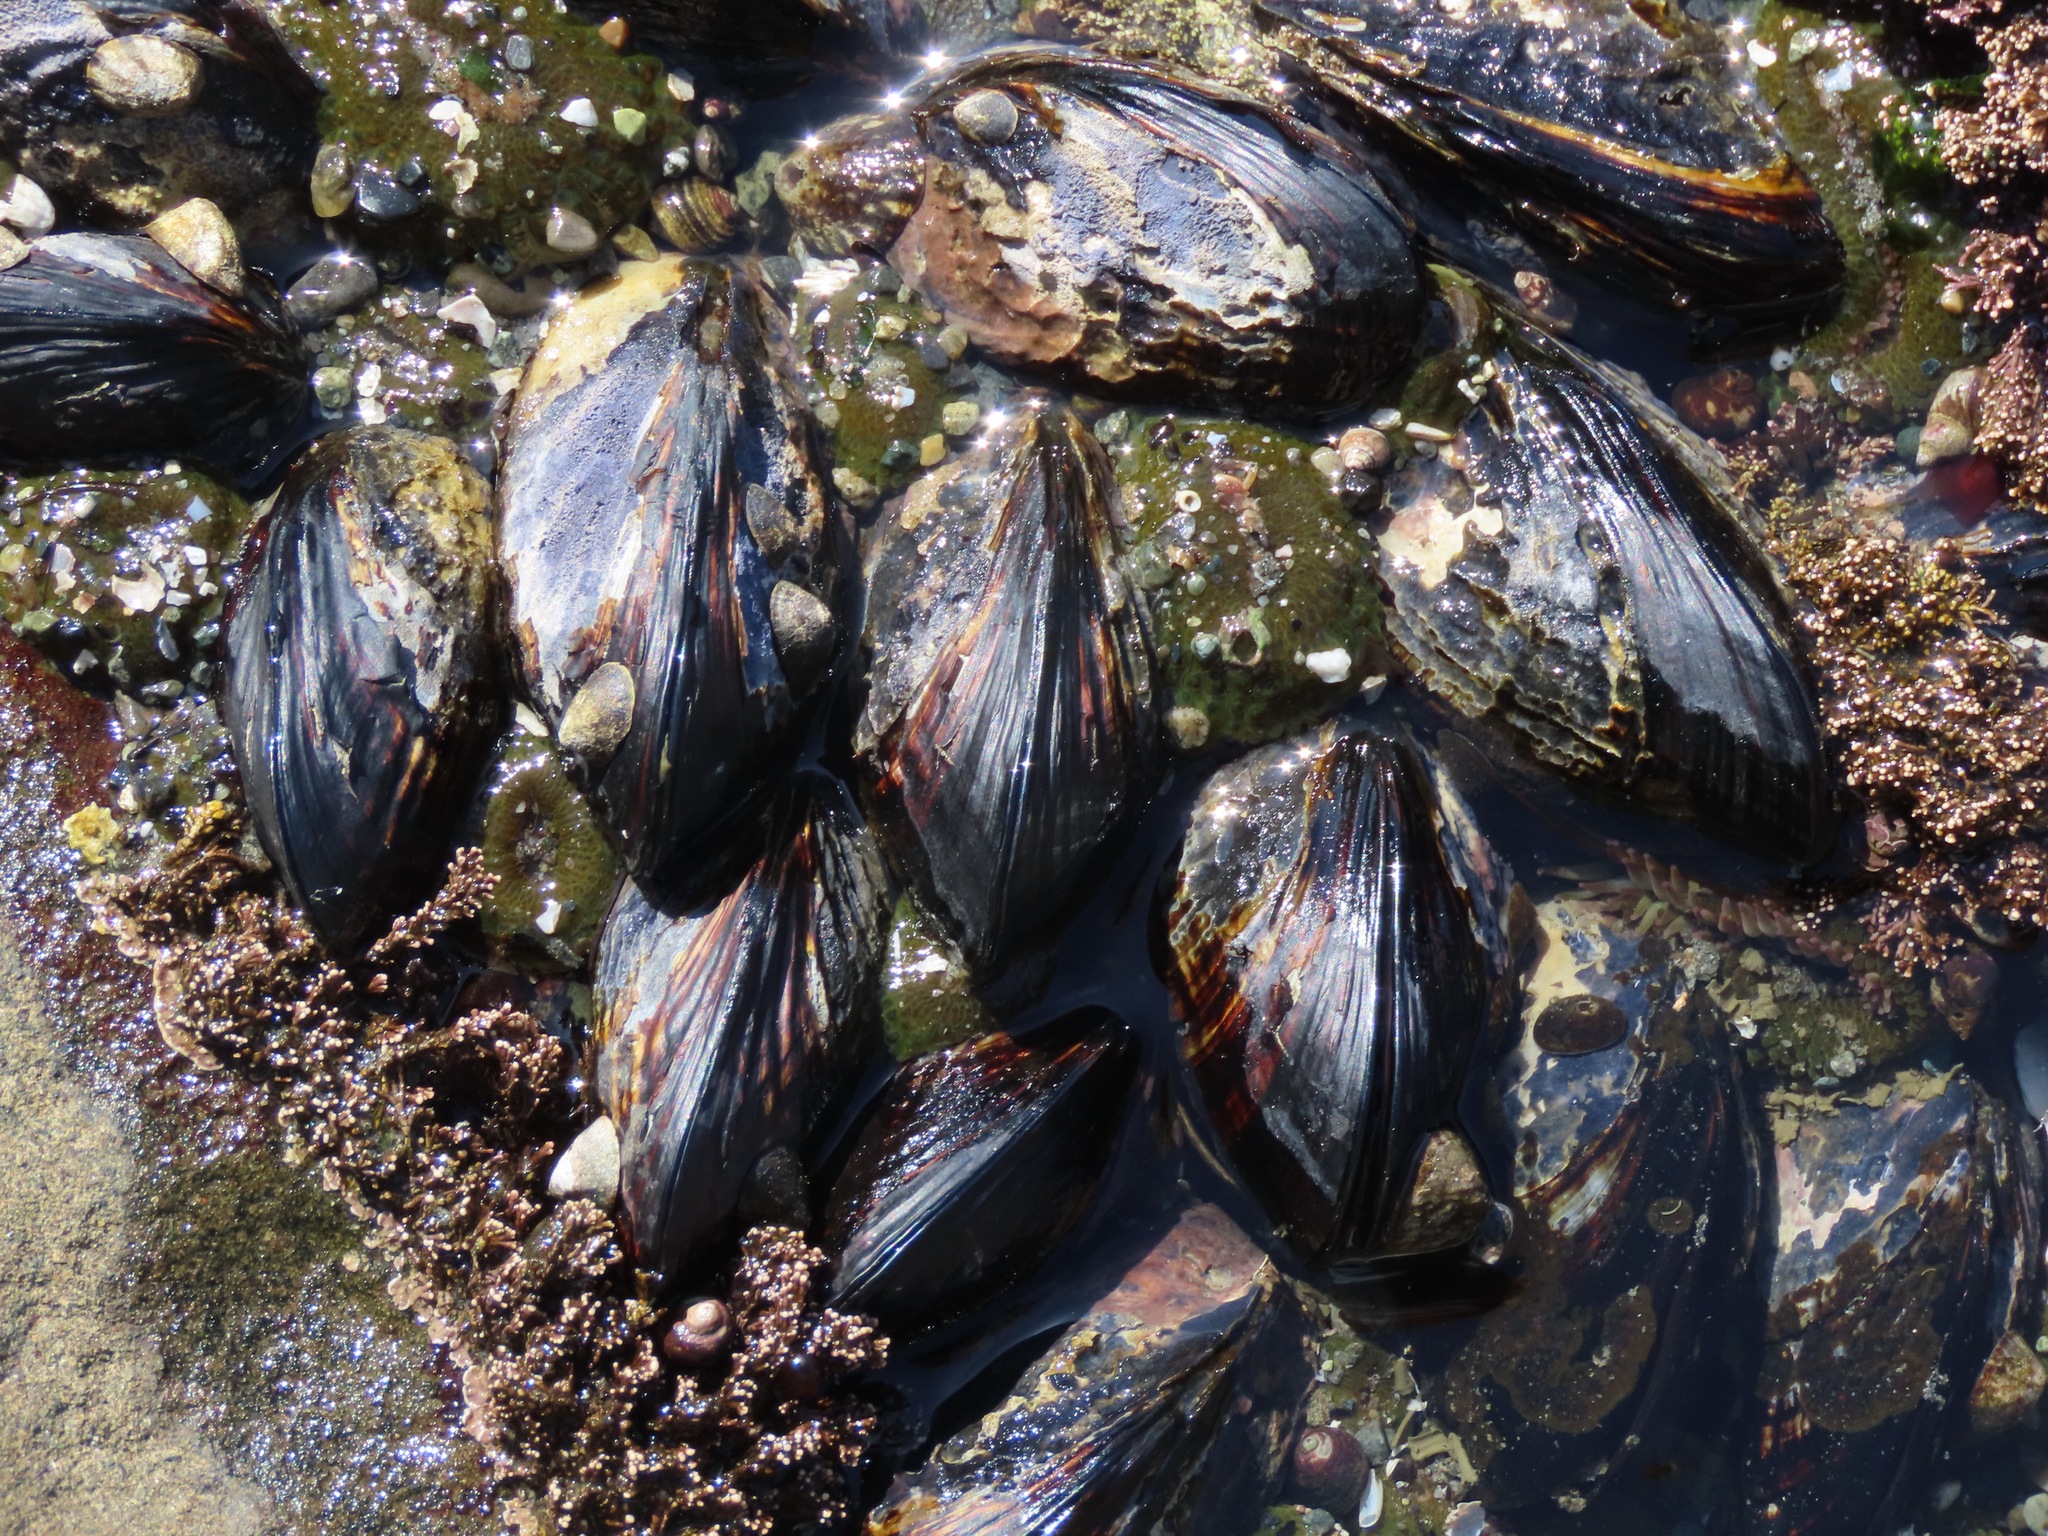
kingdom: Animalia
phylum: Mollusca
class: Bivalvia
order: Mytilida
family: Mytilidae
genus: Mytilus
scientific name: Mytilus californianus
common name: California mussel
